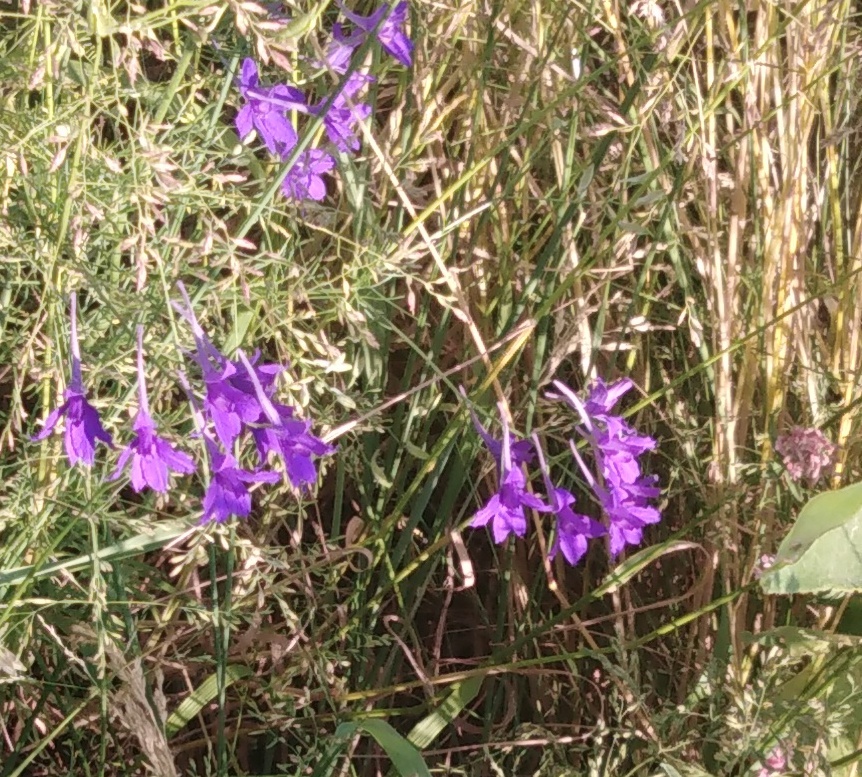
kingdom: Plantae
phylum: Tracheophyta
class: Magnoliopsida
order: Ranunculales
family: Ranunculaceae
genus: Delphinium
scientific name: Delphinium consolida
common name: Branching larkspur
